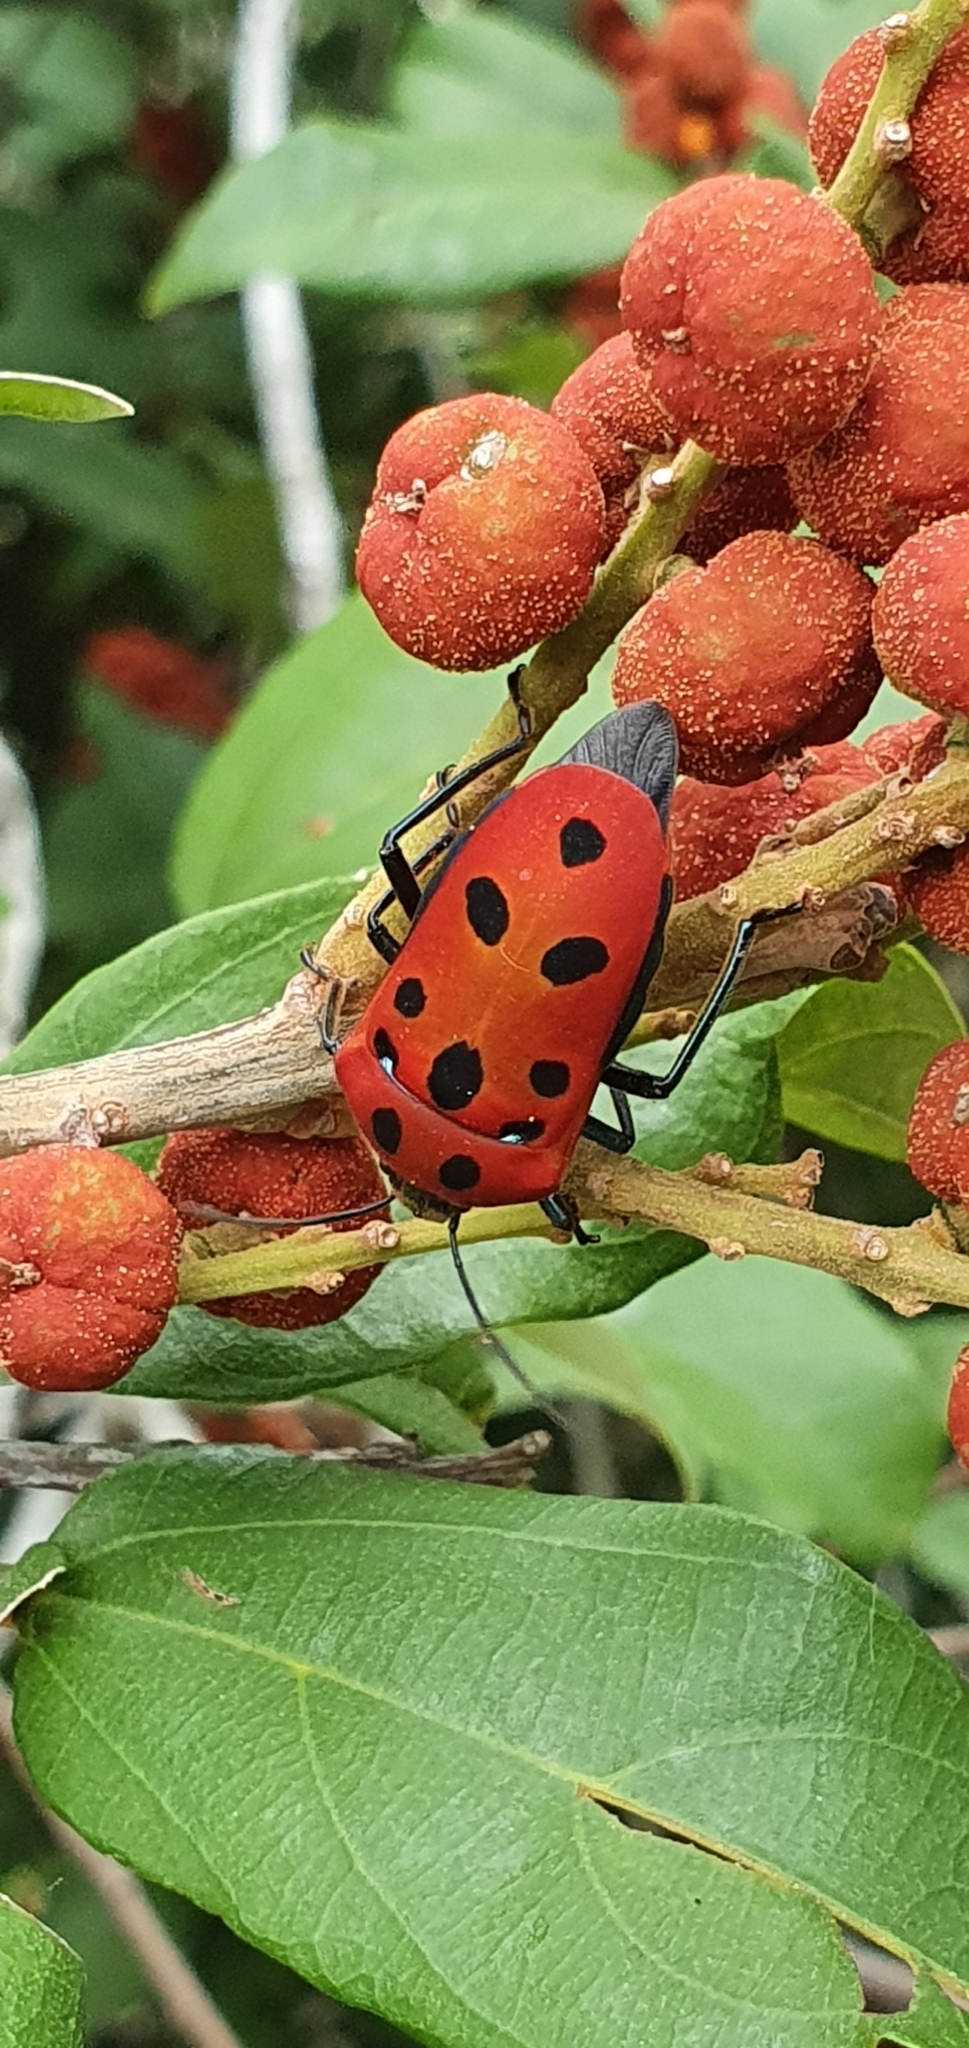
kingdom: Animalia
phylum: Arthropoda
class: Insecta
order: Hemiptera
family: Scutelleridae
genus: Cantao
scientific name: Cantao
